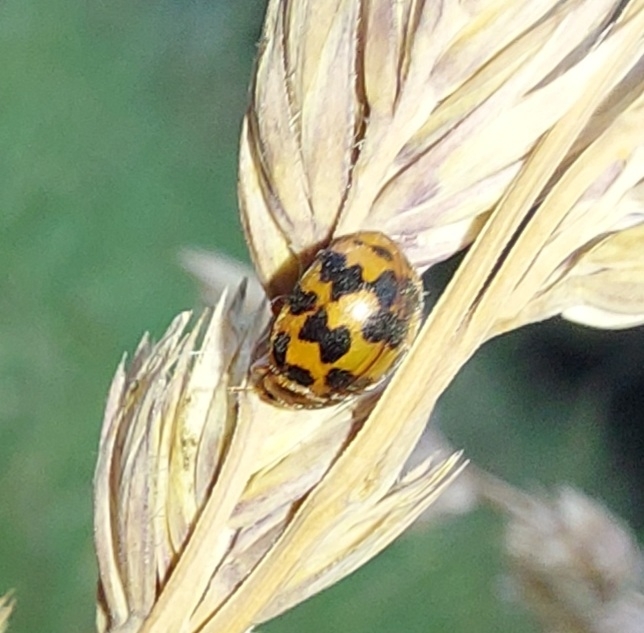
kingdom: Animalia
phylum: Arthropoda
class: Insecta
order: Coleoptera
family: Coccinellidae
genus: Subcoccinella
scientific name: Subcoccinella vigintiquatuorpunctata
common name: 24-spot ladybird
